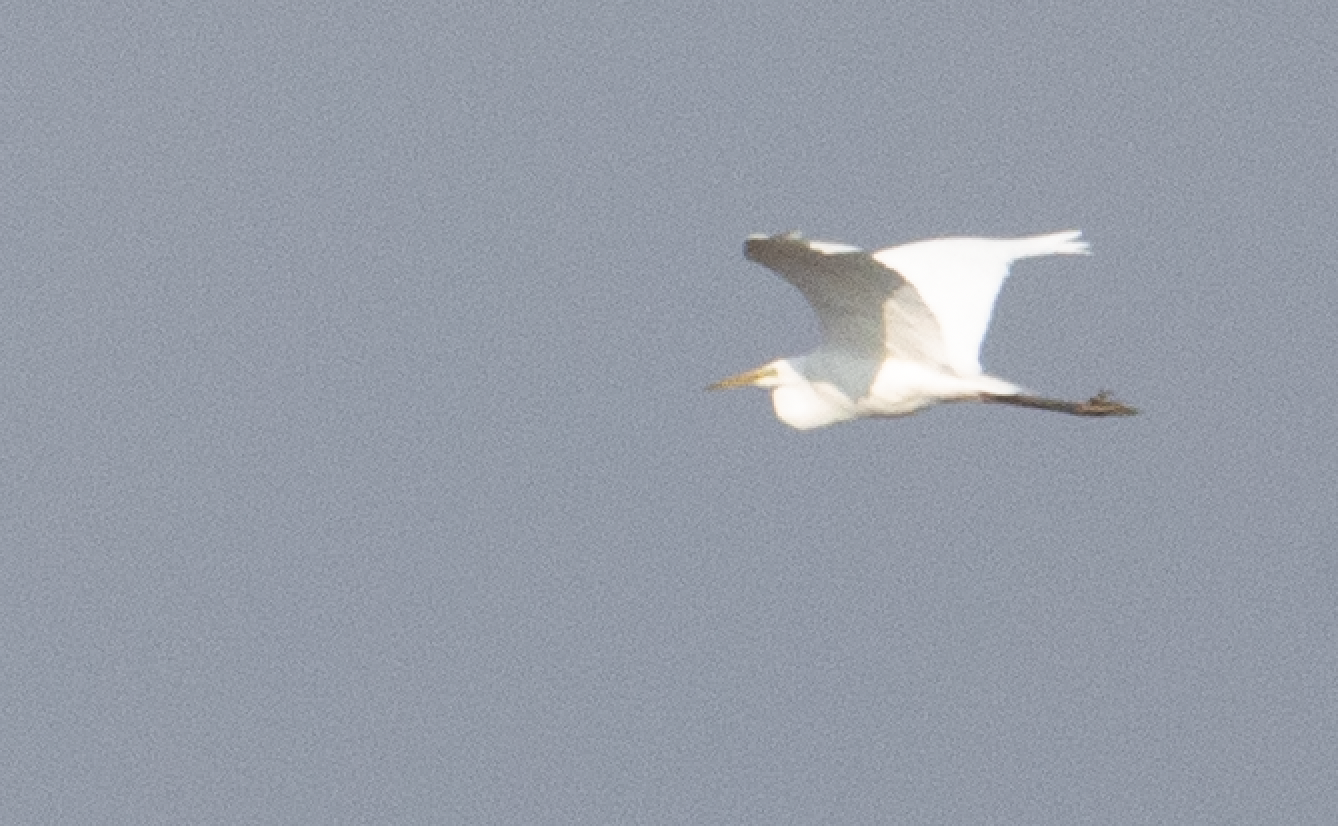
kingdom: Animalia
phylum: Chordata
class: Aves
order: Pelecaniformes
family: Ardeidae
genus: Ardea
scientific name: Ardea alba
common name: Great egret
